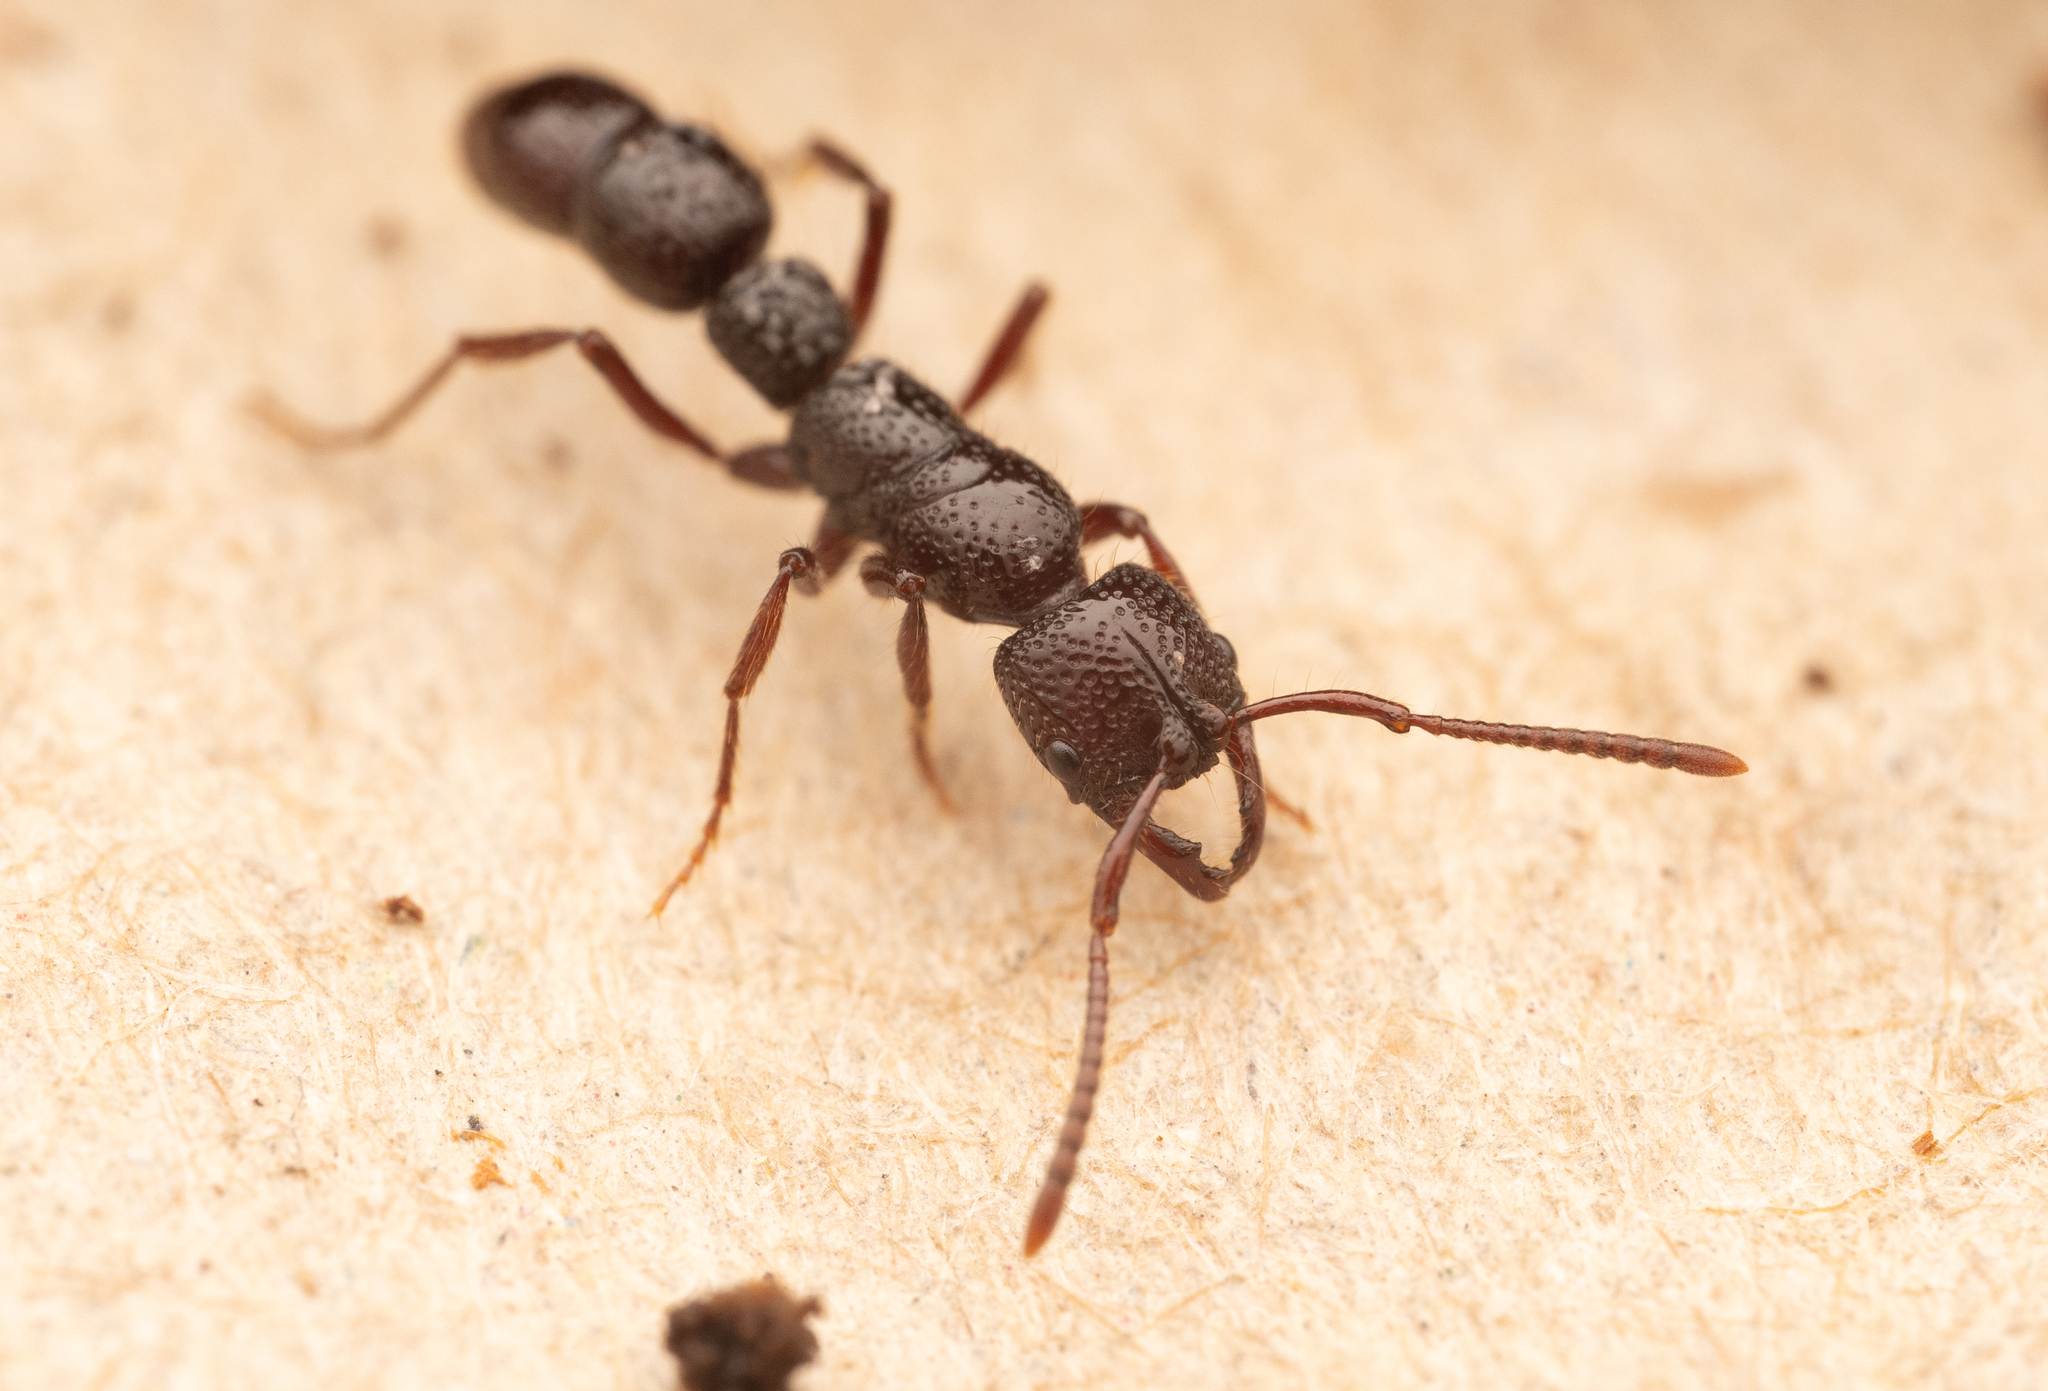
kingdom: Animalia
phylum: Arthropoda
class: Insecta
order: Hymenoptera
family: Formicidae
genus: Myopias
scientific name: Myopias concava
